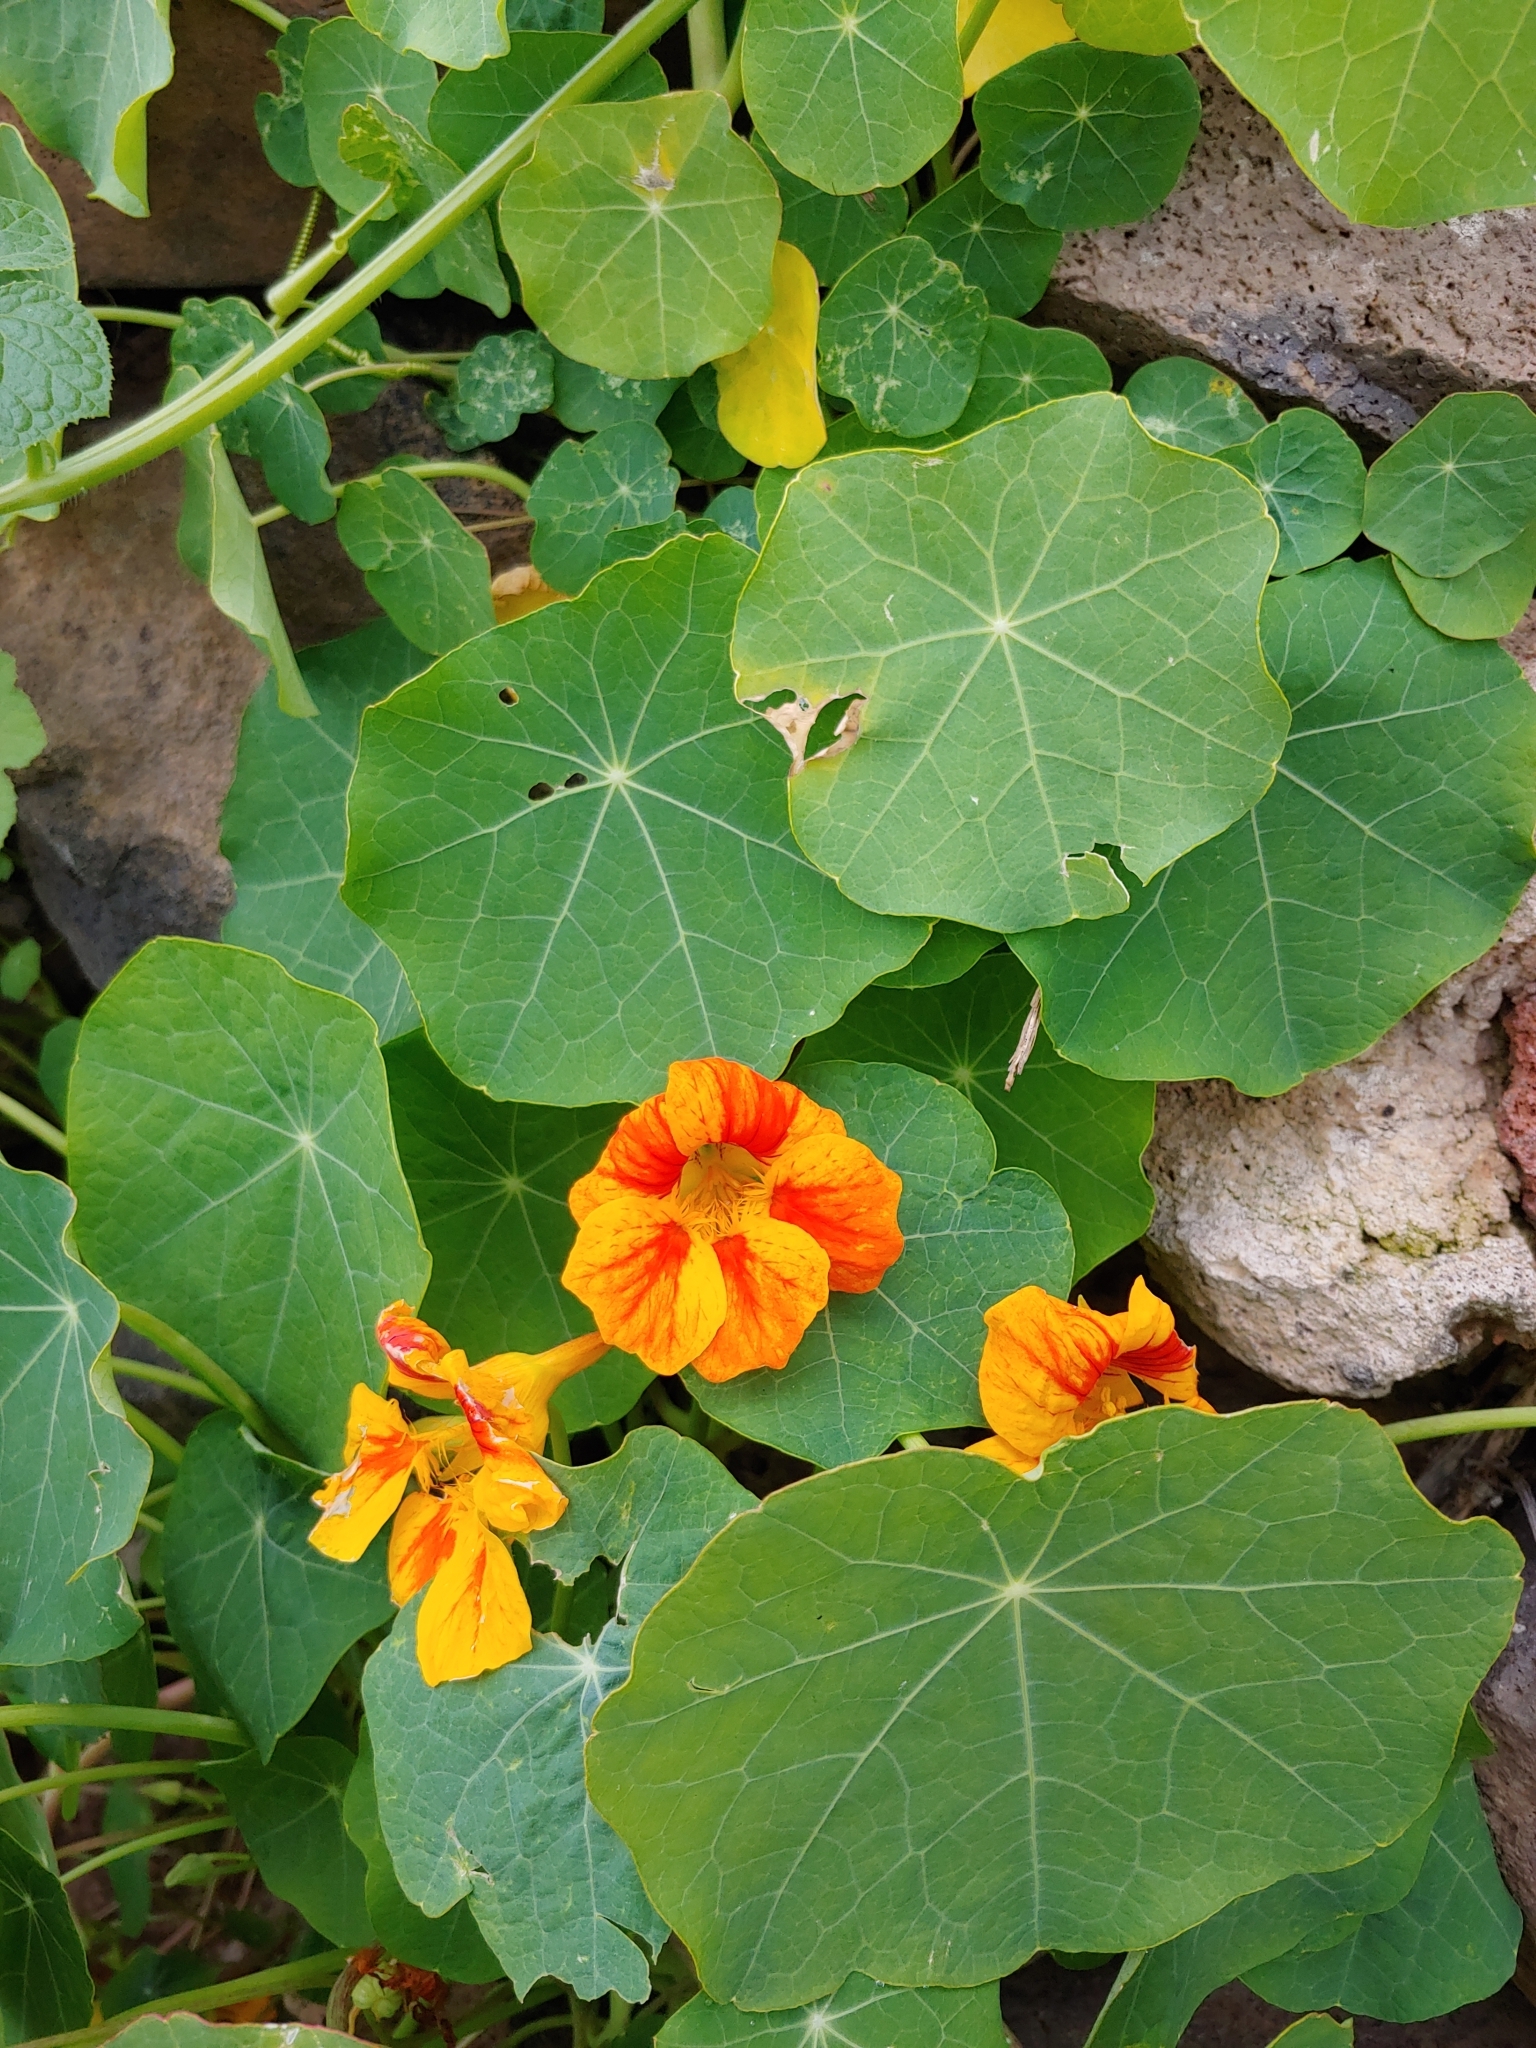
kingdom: Plantae
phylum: Tracheophyta
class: Magnoliopsida
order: Brassicales
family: Tropaeolaceae
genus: Tropaeolum
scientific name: Tropaeolum majus
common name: Nasturtium
